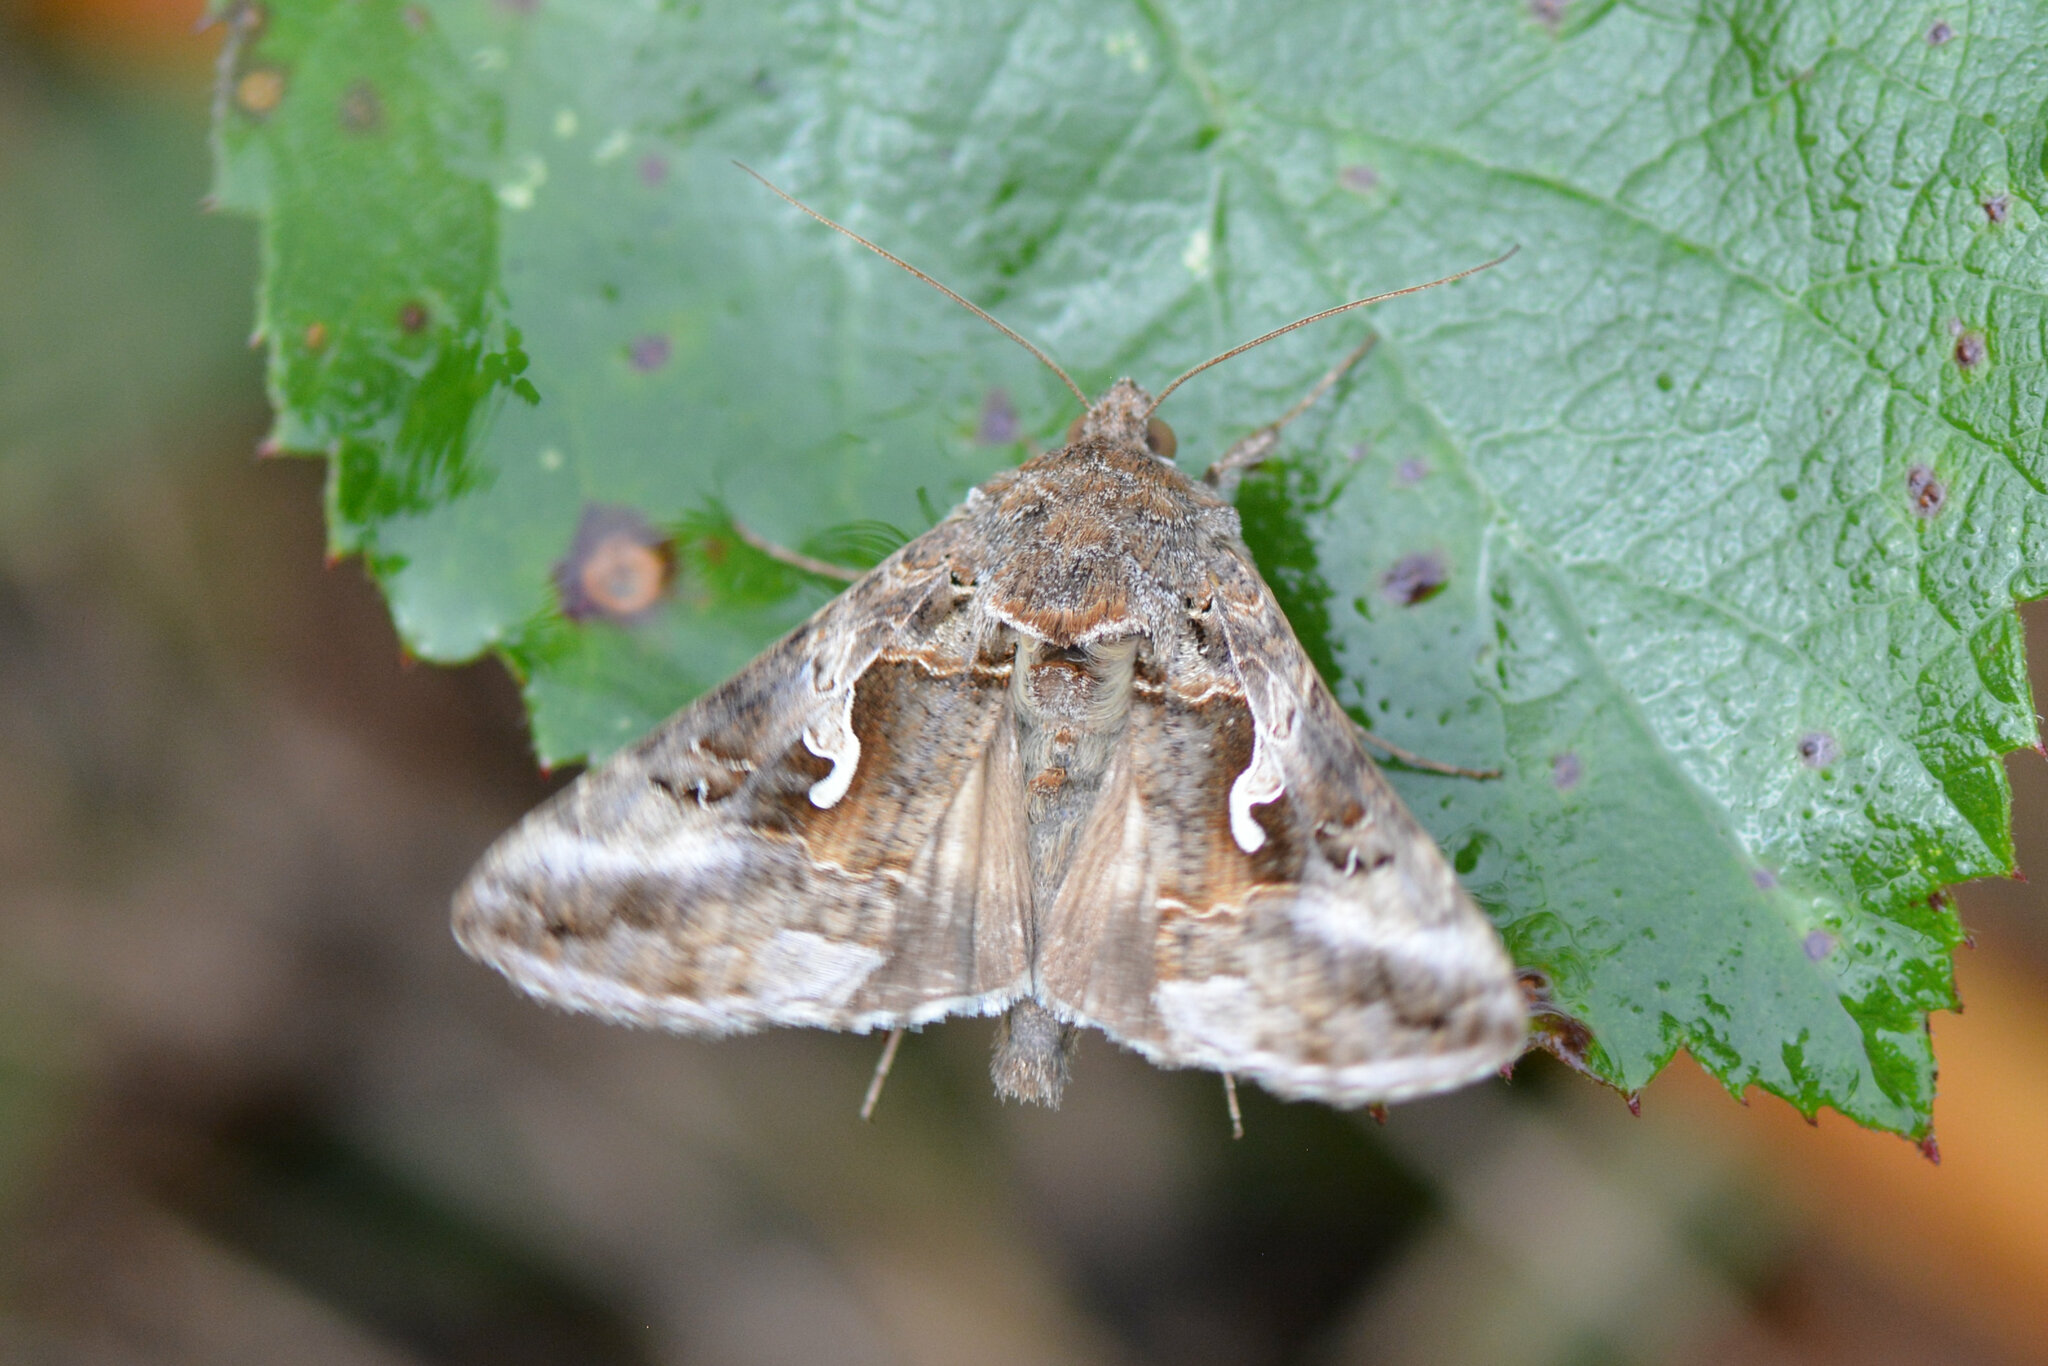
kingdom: Animalia
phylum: Arthropoda
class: Insecta
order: Lepidoptera
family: Noctuidae
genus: Autographa
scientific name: Autographa gamma
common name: Silver y
